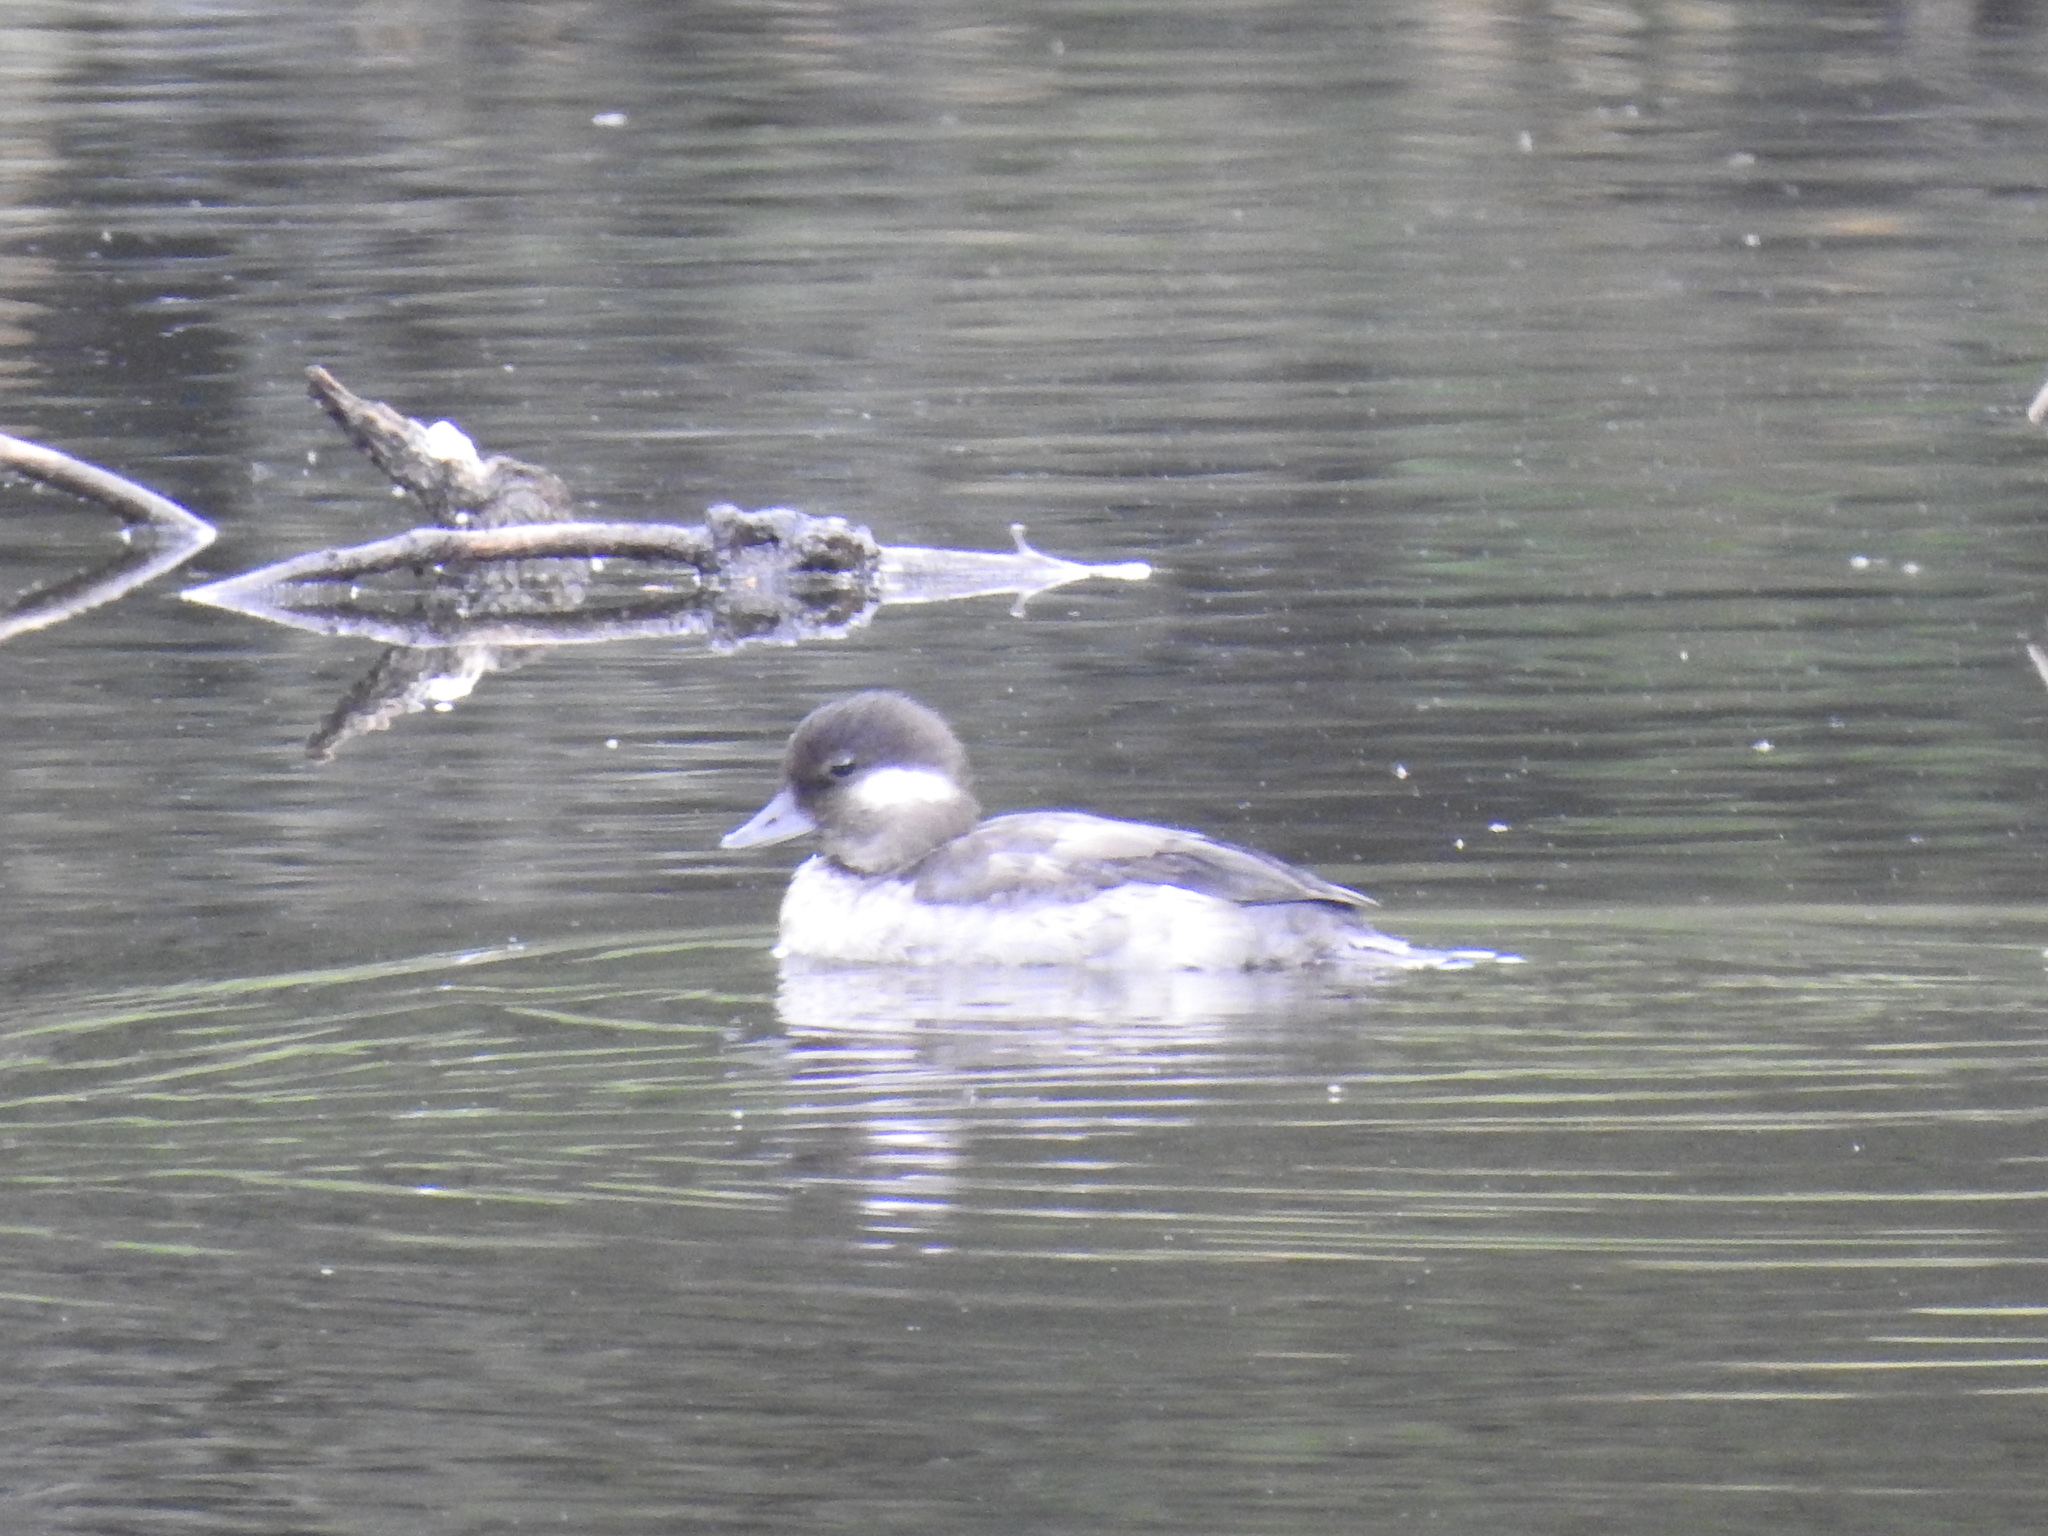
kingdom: Animalia
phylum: Chordata
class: Aves
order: Anseriformes
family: Anatidae
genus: Bucephala
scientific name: Bucephala albeola
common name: Bufflehead
